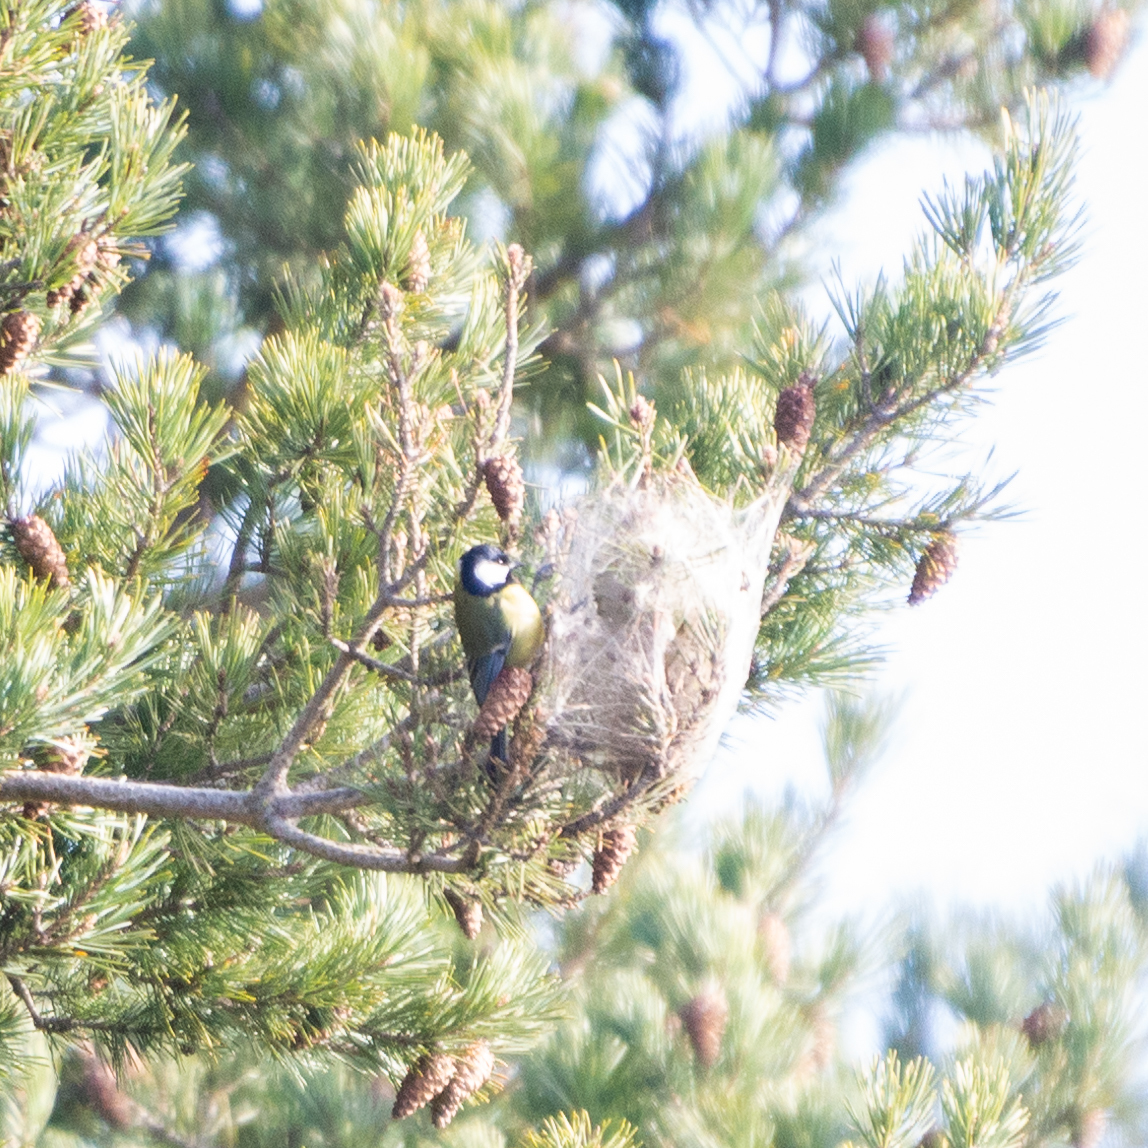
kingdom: Animalia
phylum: Chordata
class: Aves
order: Passeriformes
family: Paridae
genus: Parus
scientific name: Parus major
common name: Great tit
